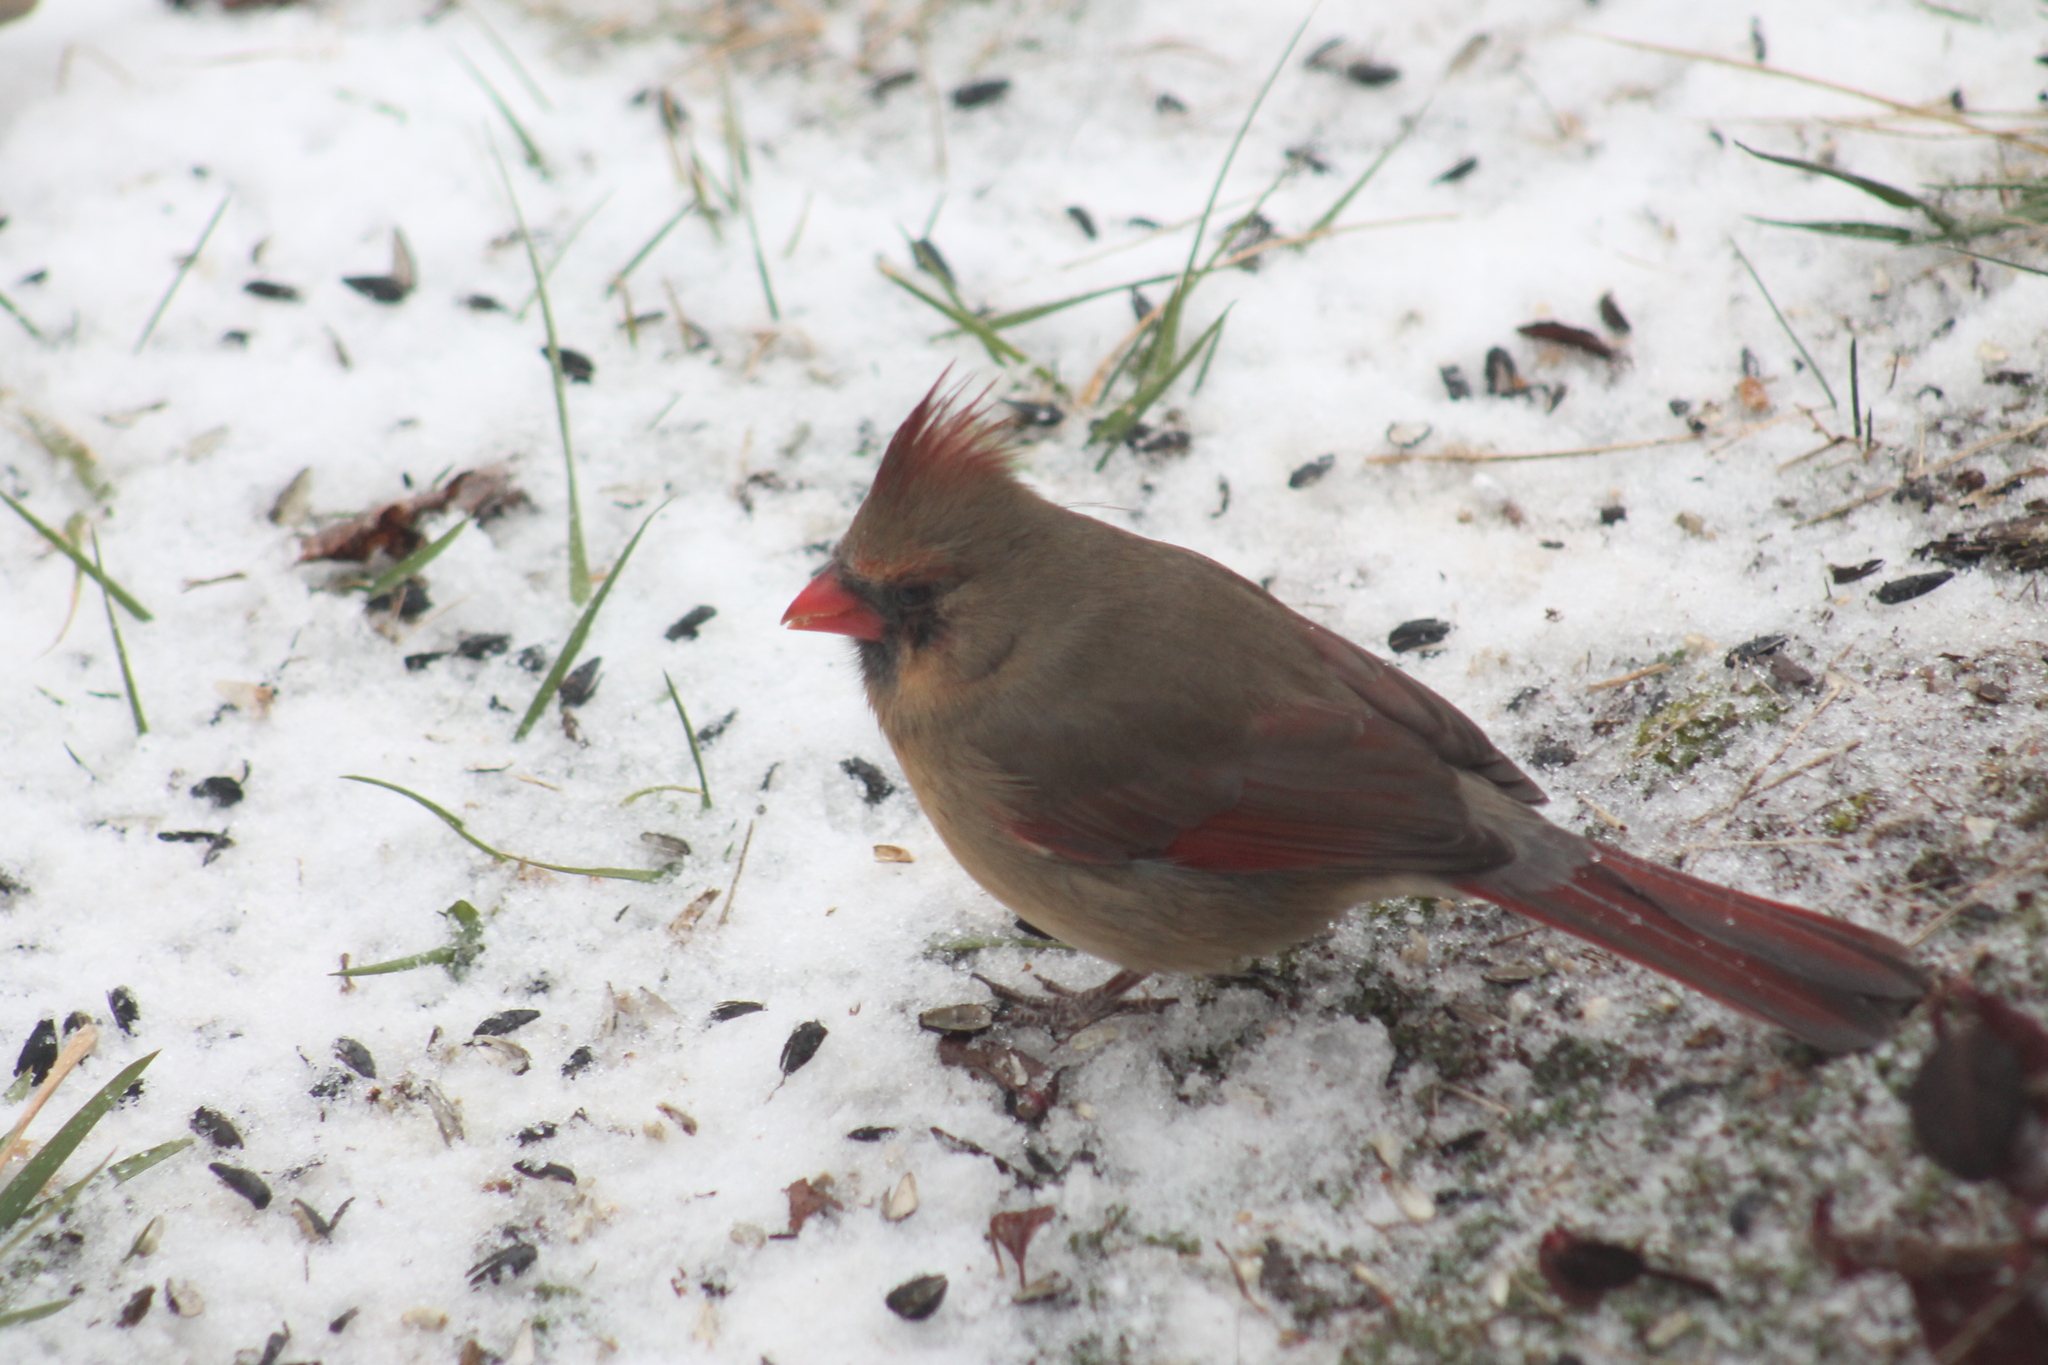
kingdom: Animalia
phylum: Chordata
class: Aves
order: Passeriformes
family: Cardinalidae
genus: Cardinalis
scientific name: Cardinalis cardinalis
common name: Northern cardinal
